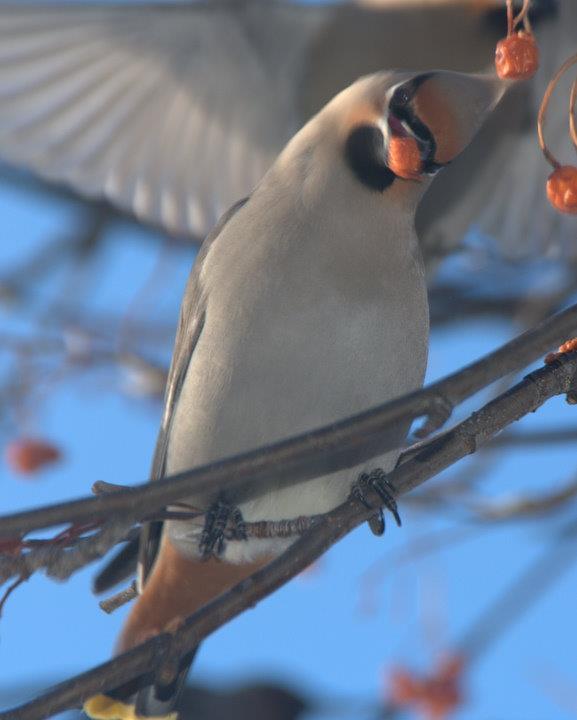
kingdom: Animalia
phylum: Chordata
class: Aves
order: Passeriformes
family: Bombycillidae
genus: Bombycilla
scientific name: Bombycilla garrulus
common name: Bohemian waxwing
